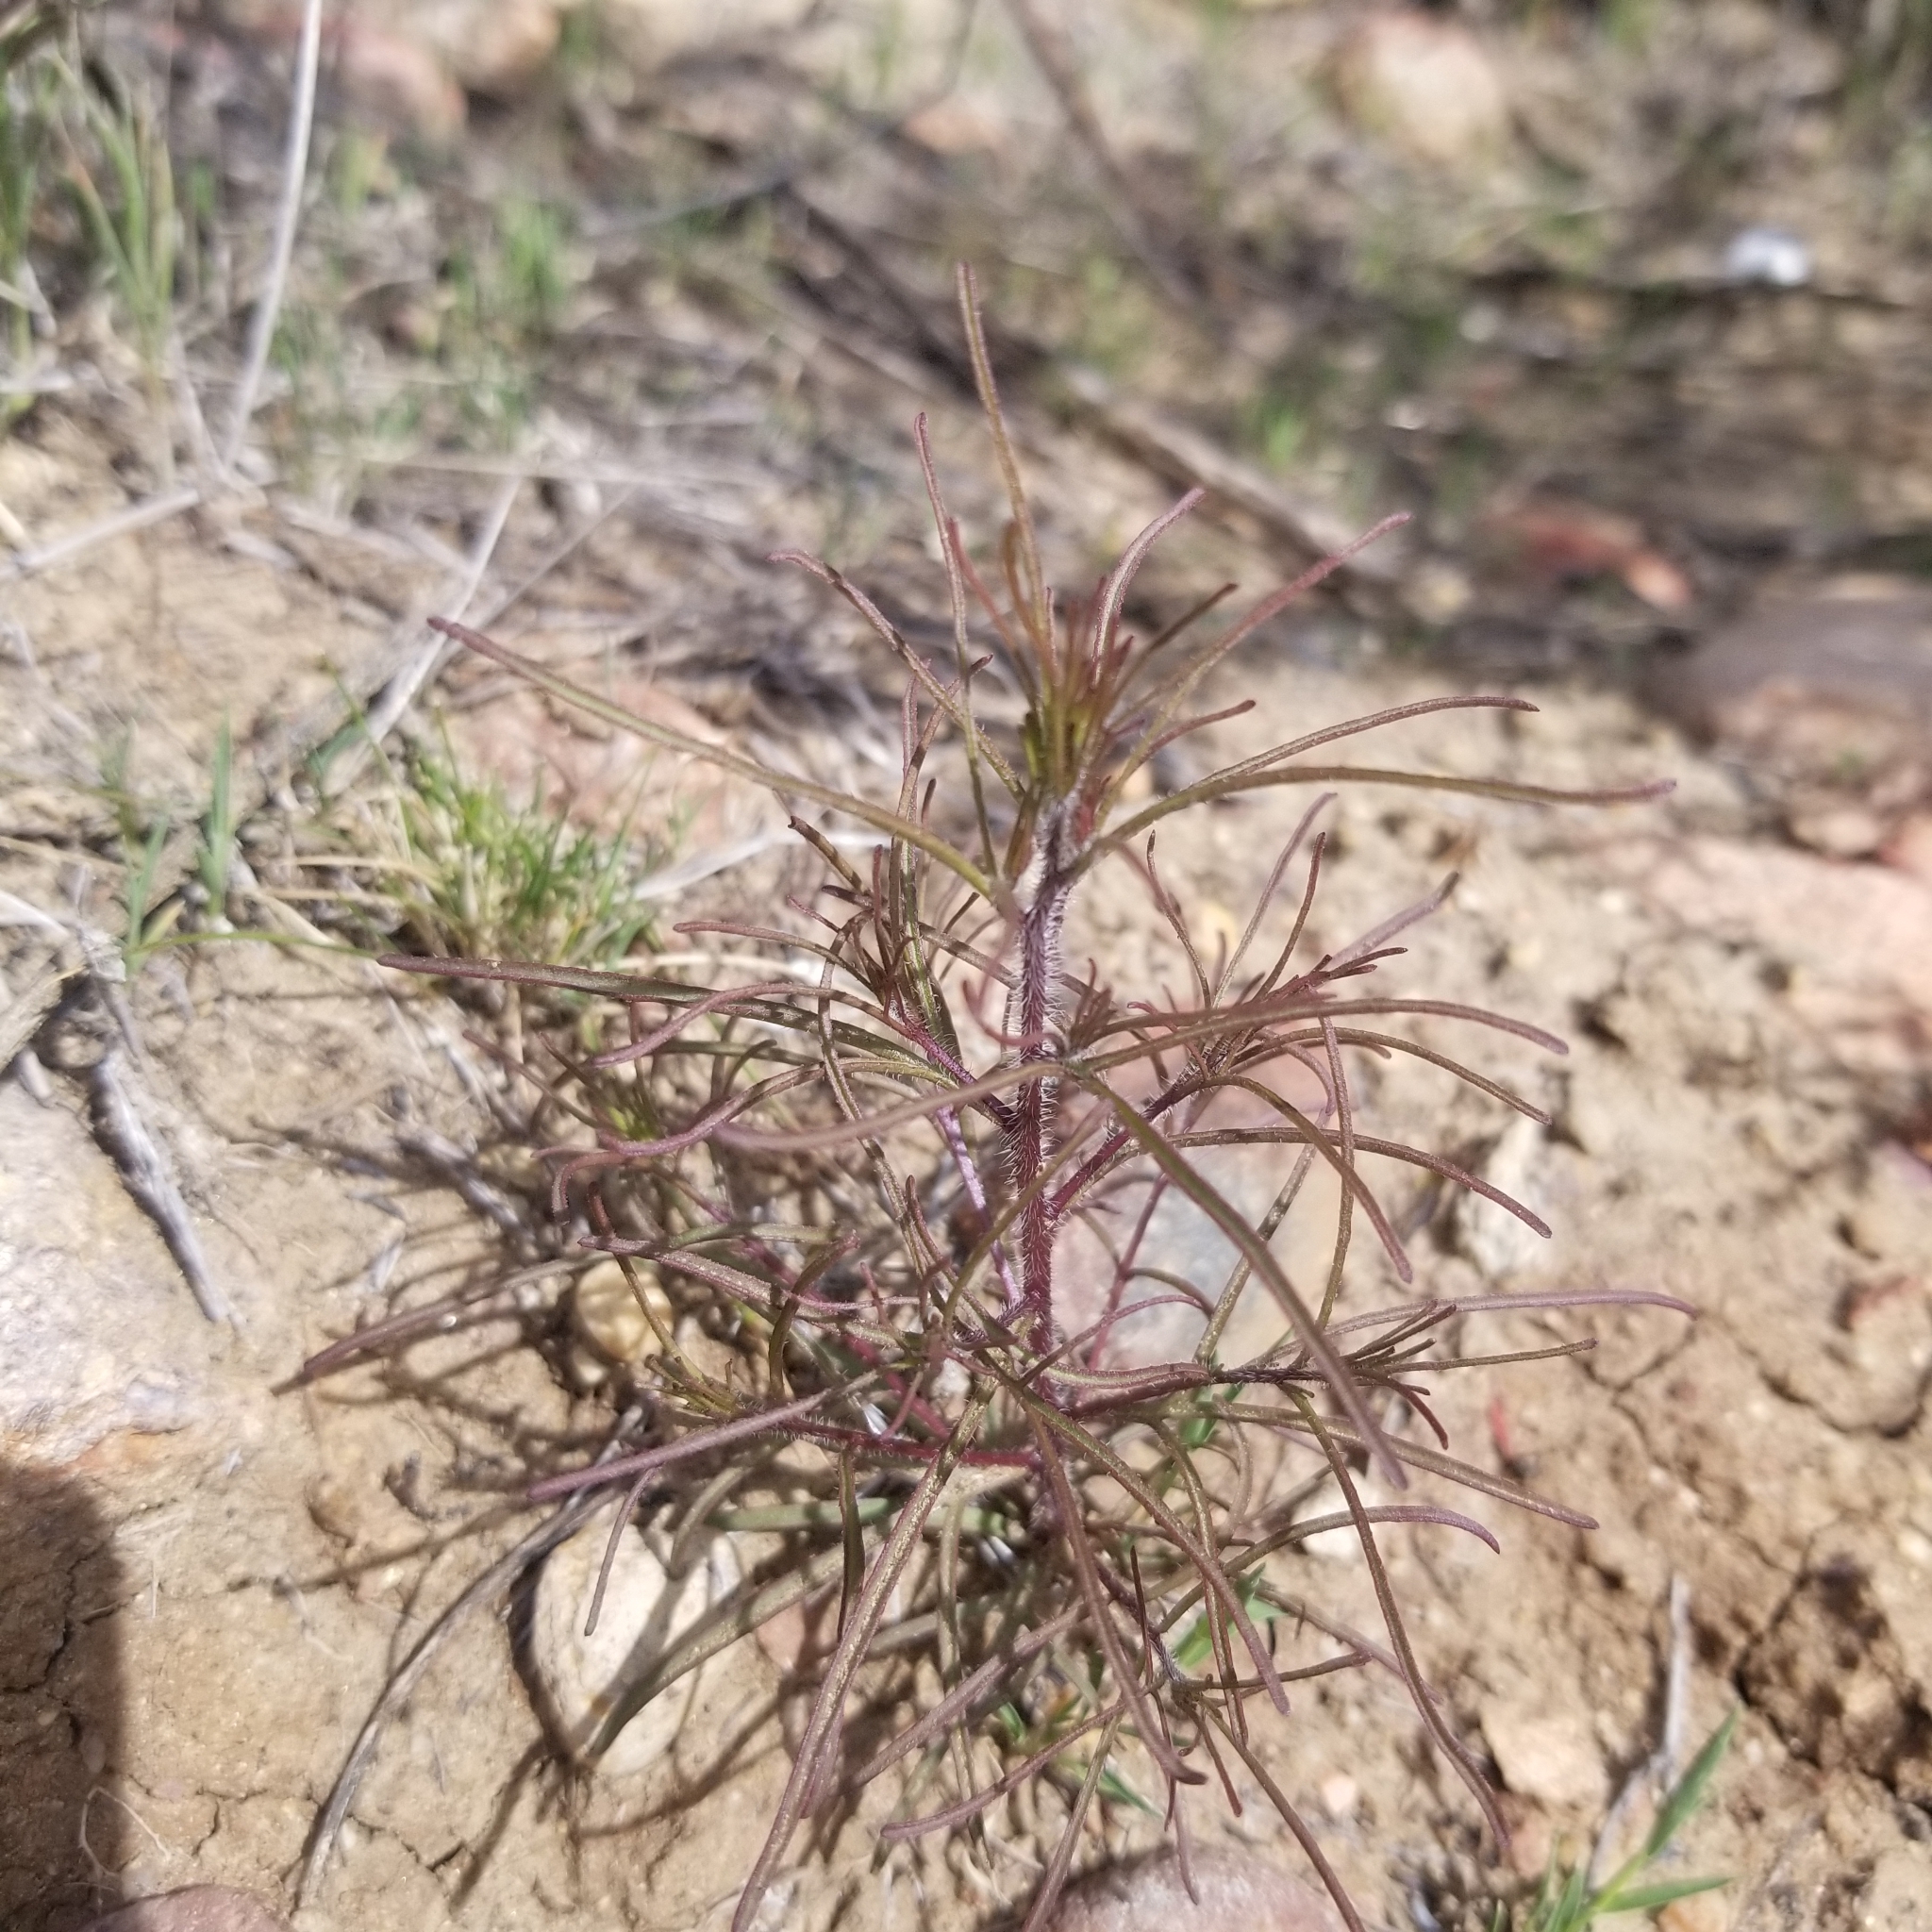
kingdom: Plantae
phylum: Tracheophyta
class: Magnoliopsida
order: Lamiales
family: Orobanchaceae
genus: Cordylanthus
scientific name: Cordylanthus rigidus
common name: Stiff-branch bird's-beak
